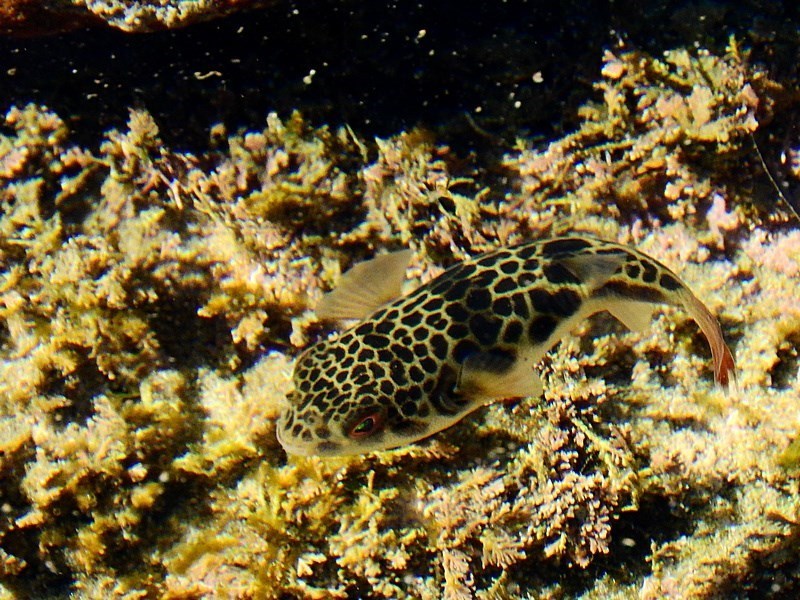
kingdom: Animalia
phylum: Chordata
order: Tetraodontiformes
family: Tetraodontidae
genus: Tetractenos
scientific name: Tetractenos glaber
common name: Smooth toadfish
